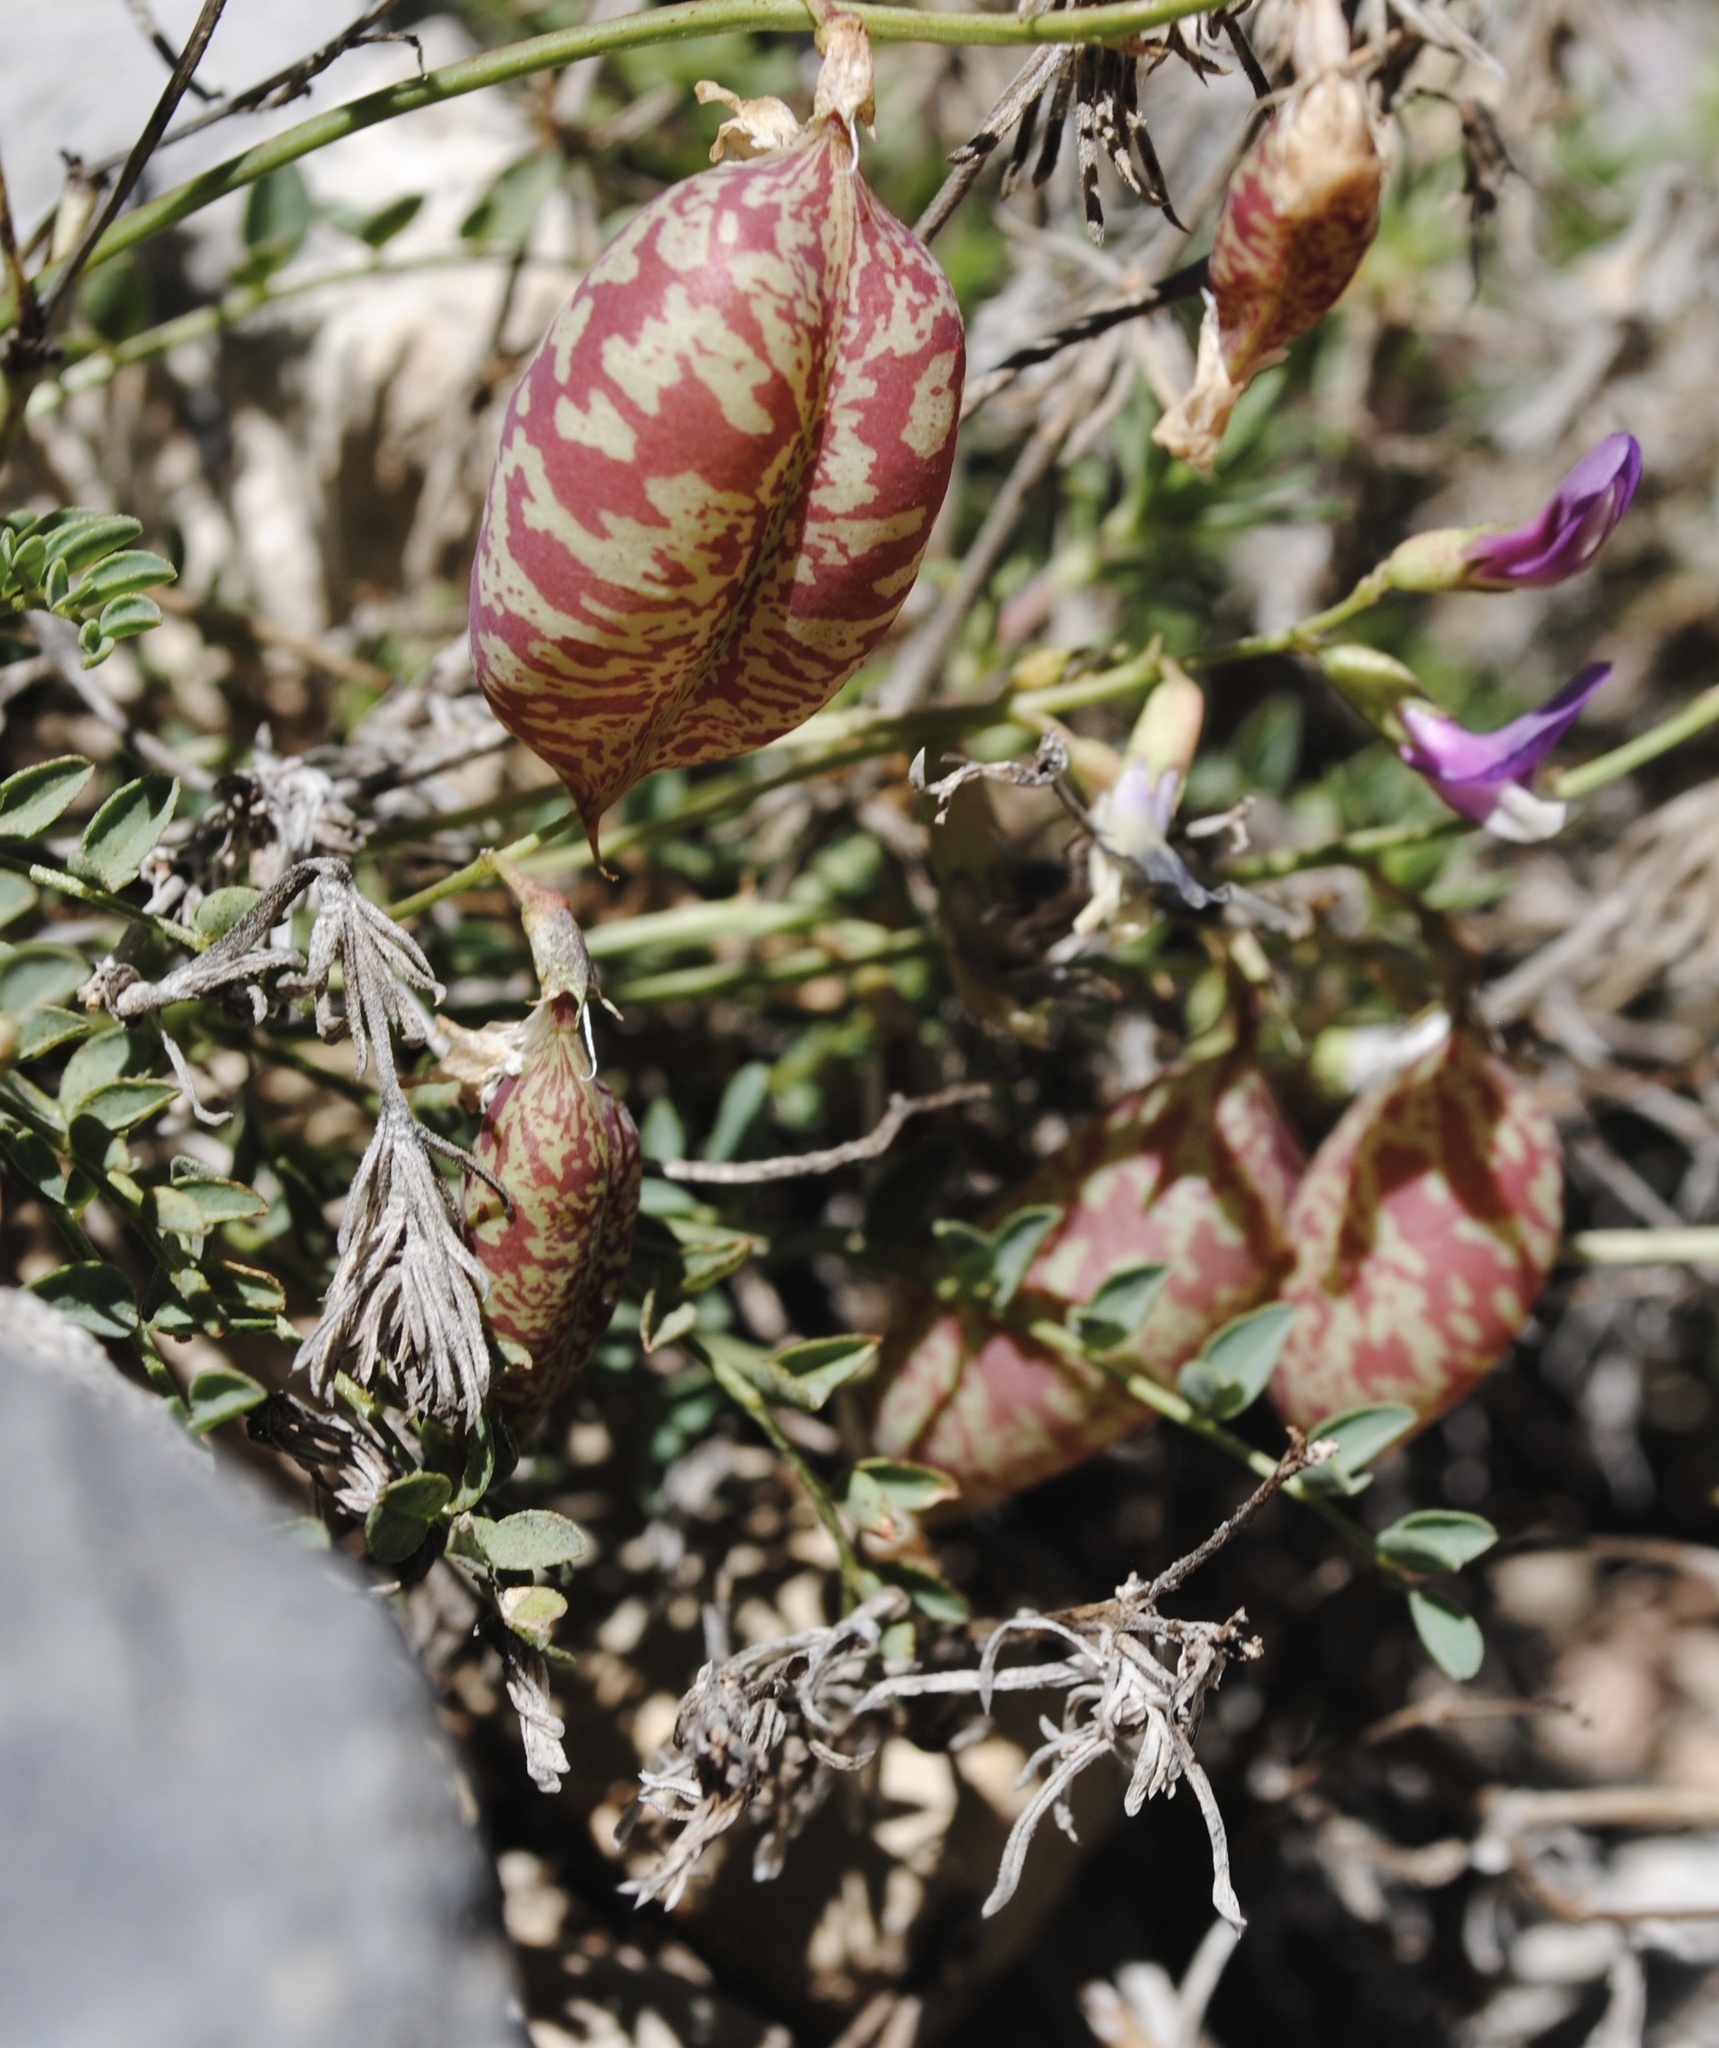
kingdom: Plantae
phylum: Tracheophyta
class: Magnoliopsida
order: Fabales
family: Fabaceae
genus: Astragalus
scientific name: Astragalus oophorus
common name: Egg milkvetch
